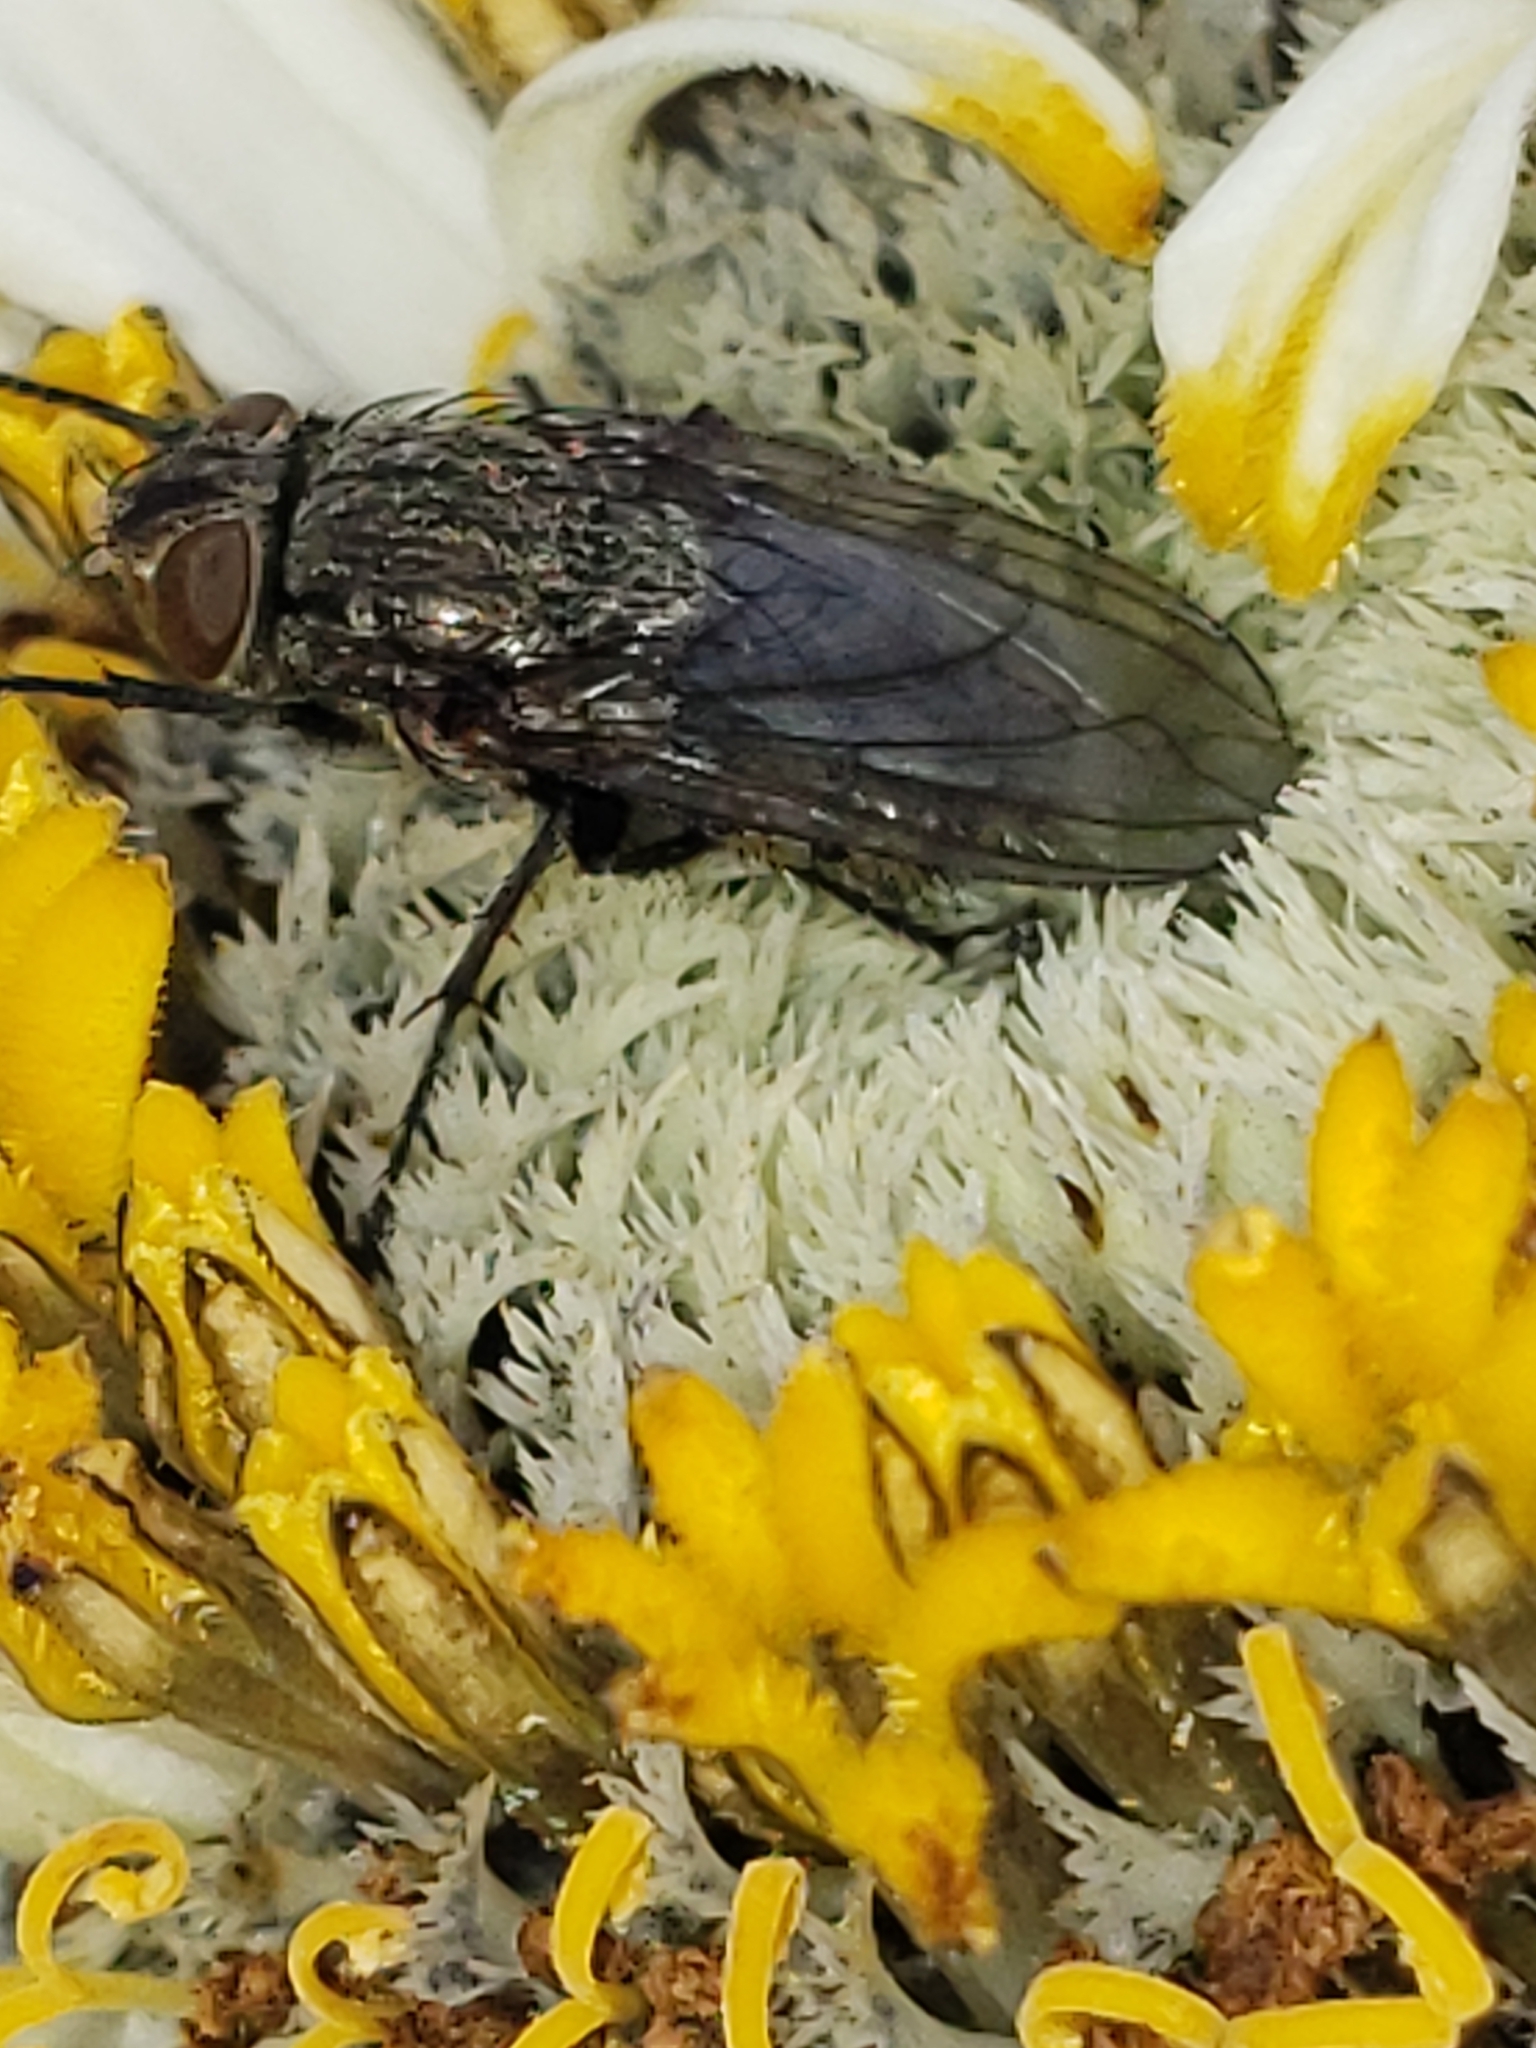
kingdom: Animalia
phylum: Arthropoda
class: Insecta
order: Diptera
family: Polleniidae
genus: Pollenia
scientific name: Pollenia
